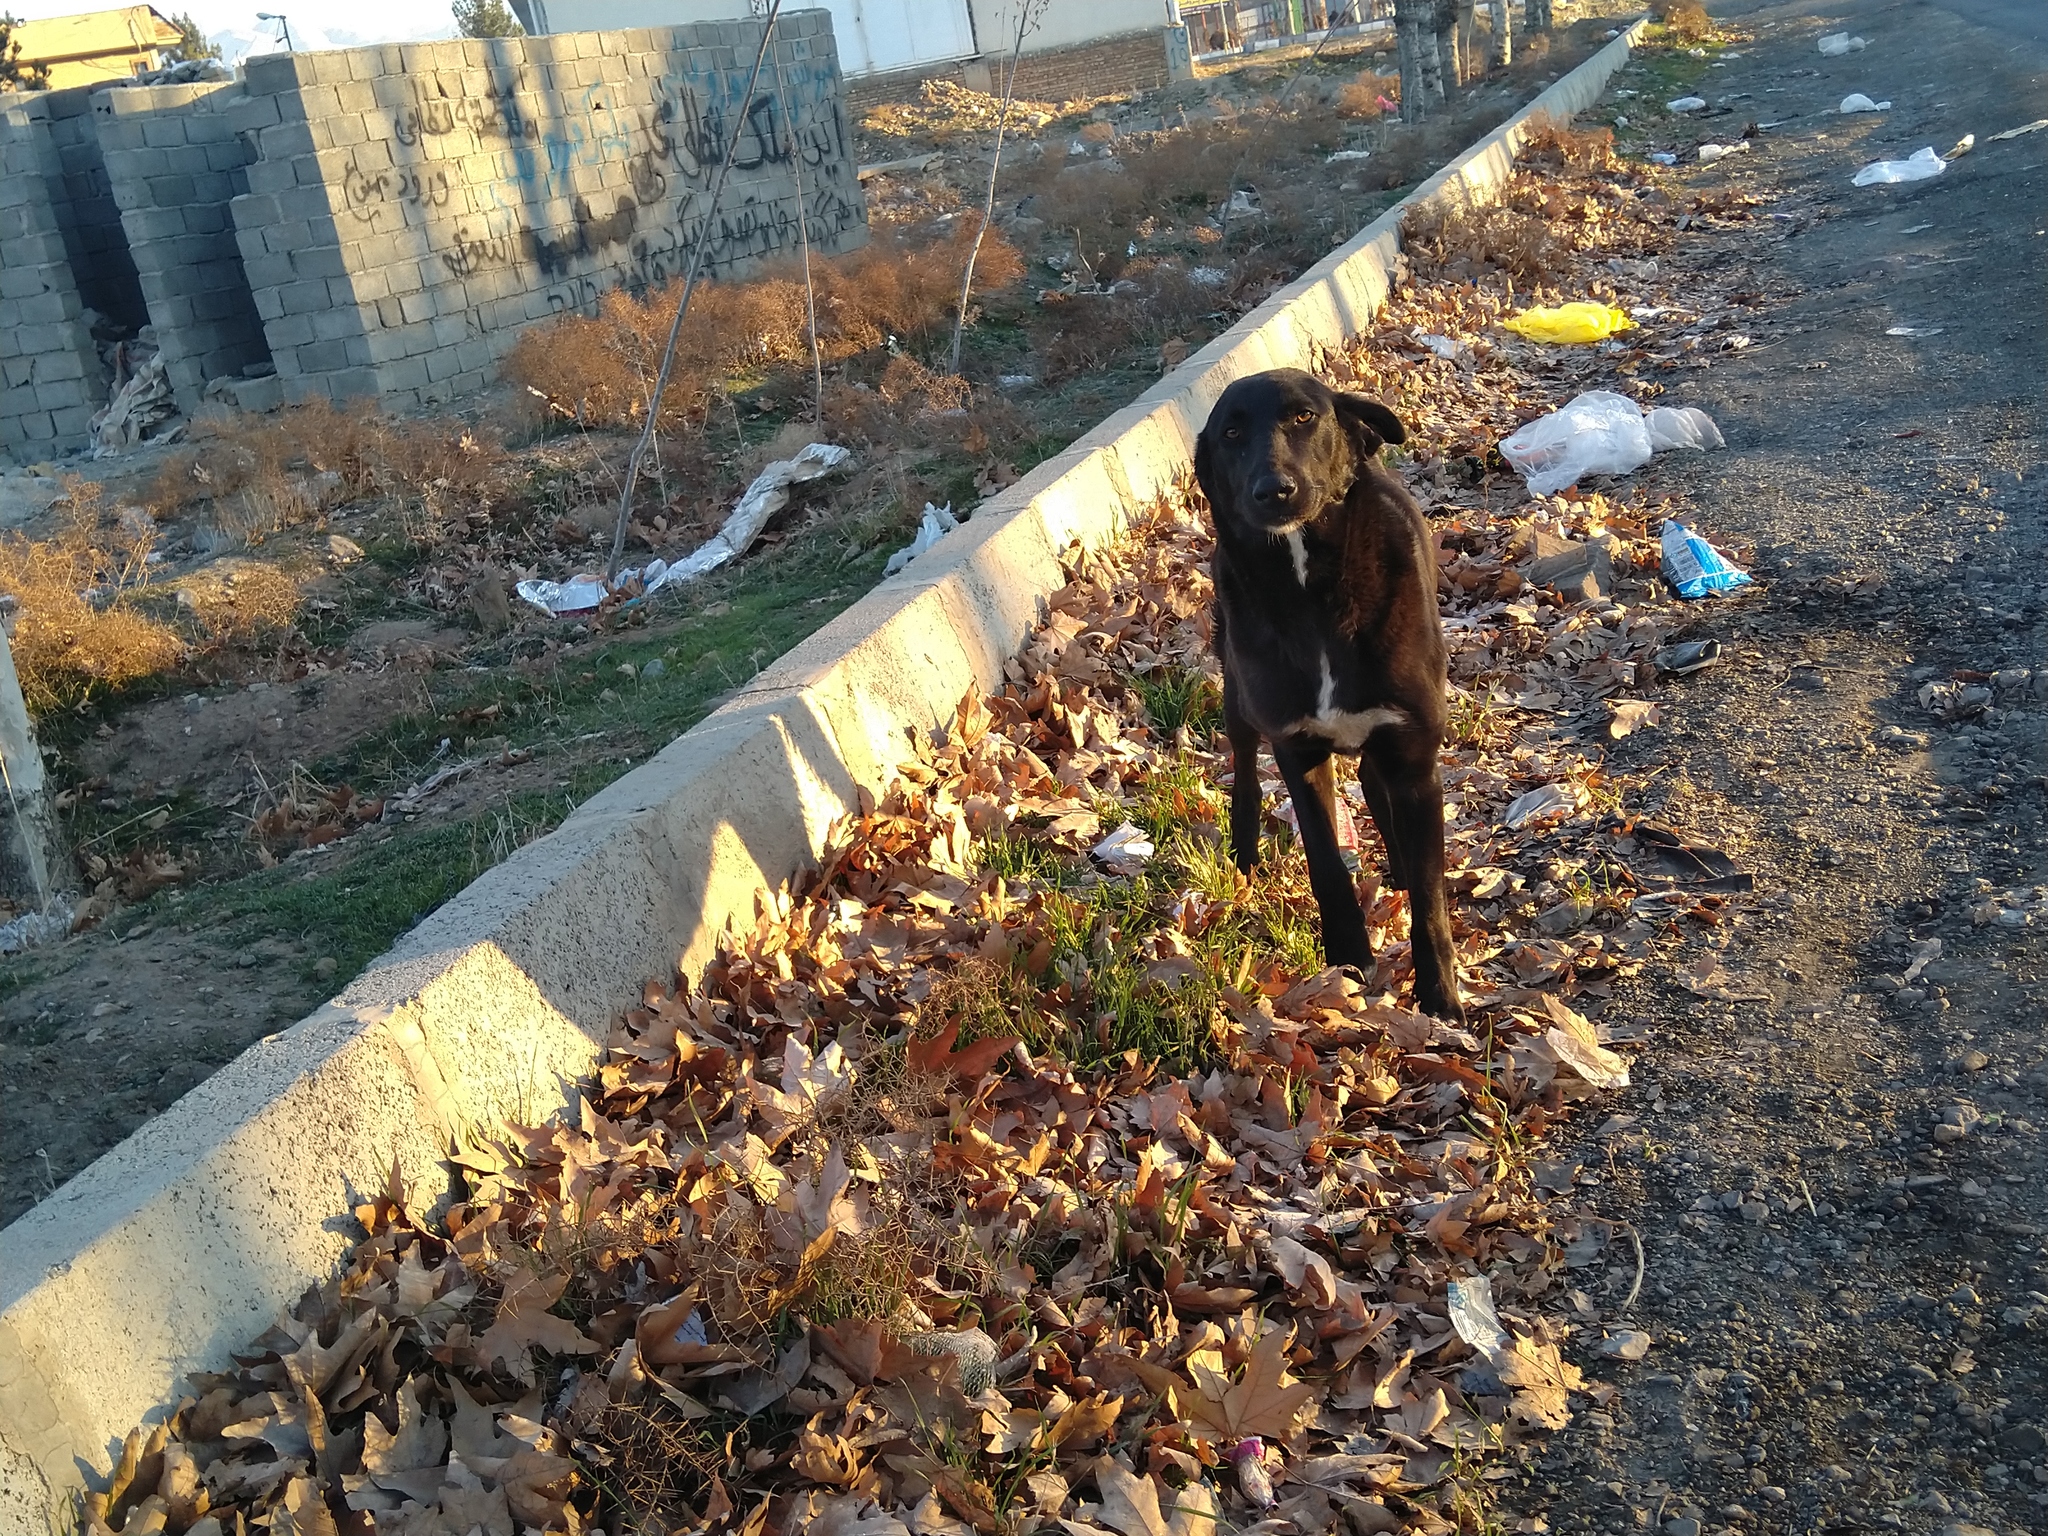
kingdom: Animalia
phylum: Chordata
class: Mammalia
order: Carnivora
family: Canidae
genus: Canis
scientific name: Canis lupus
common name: Gray wolf
